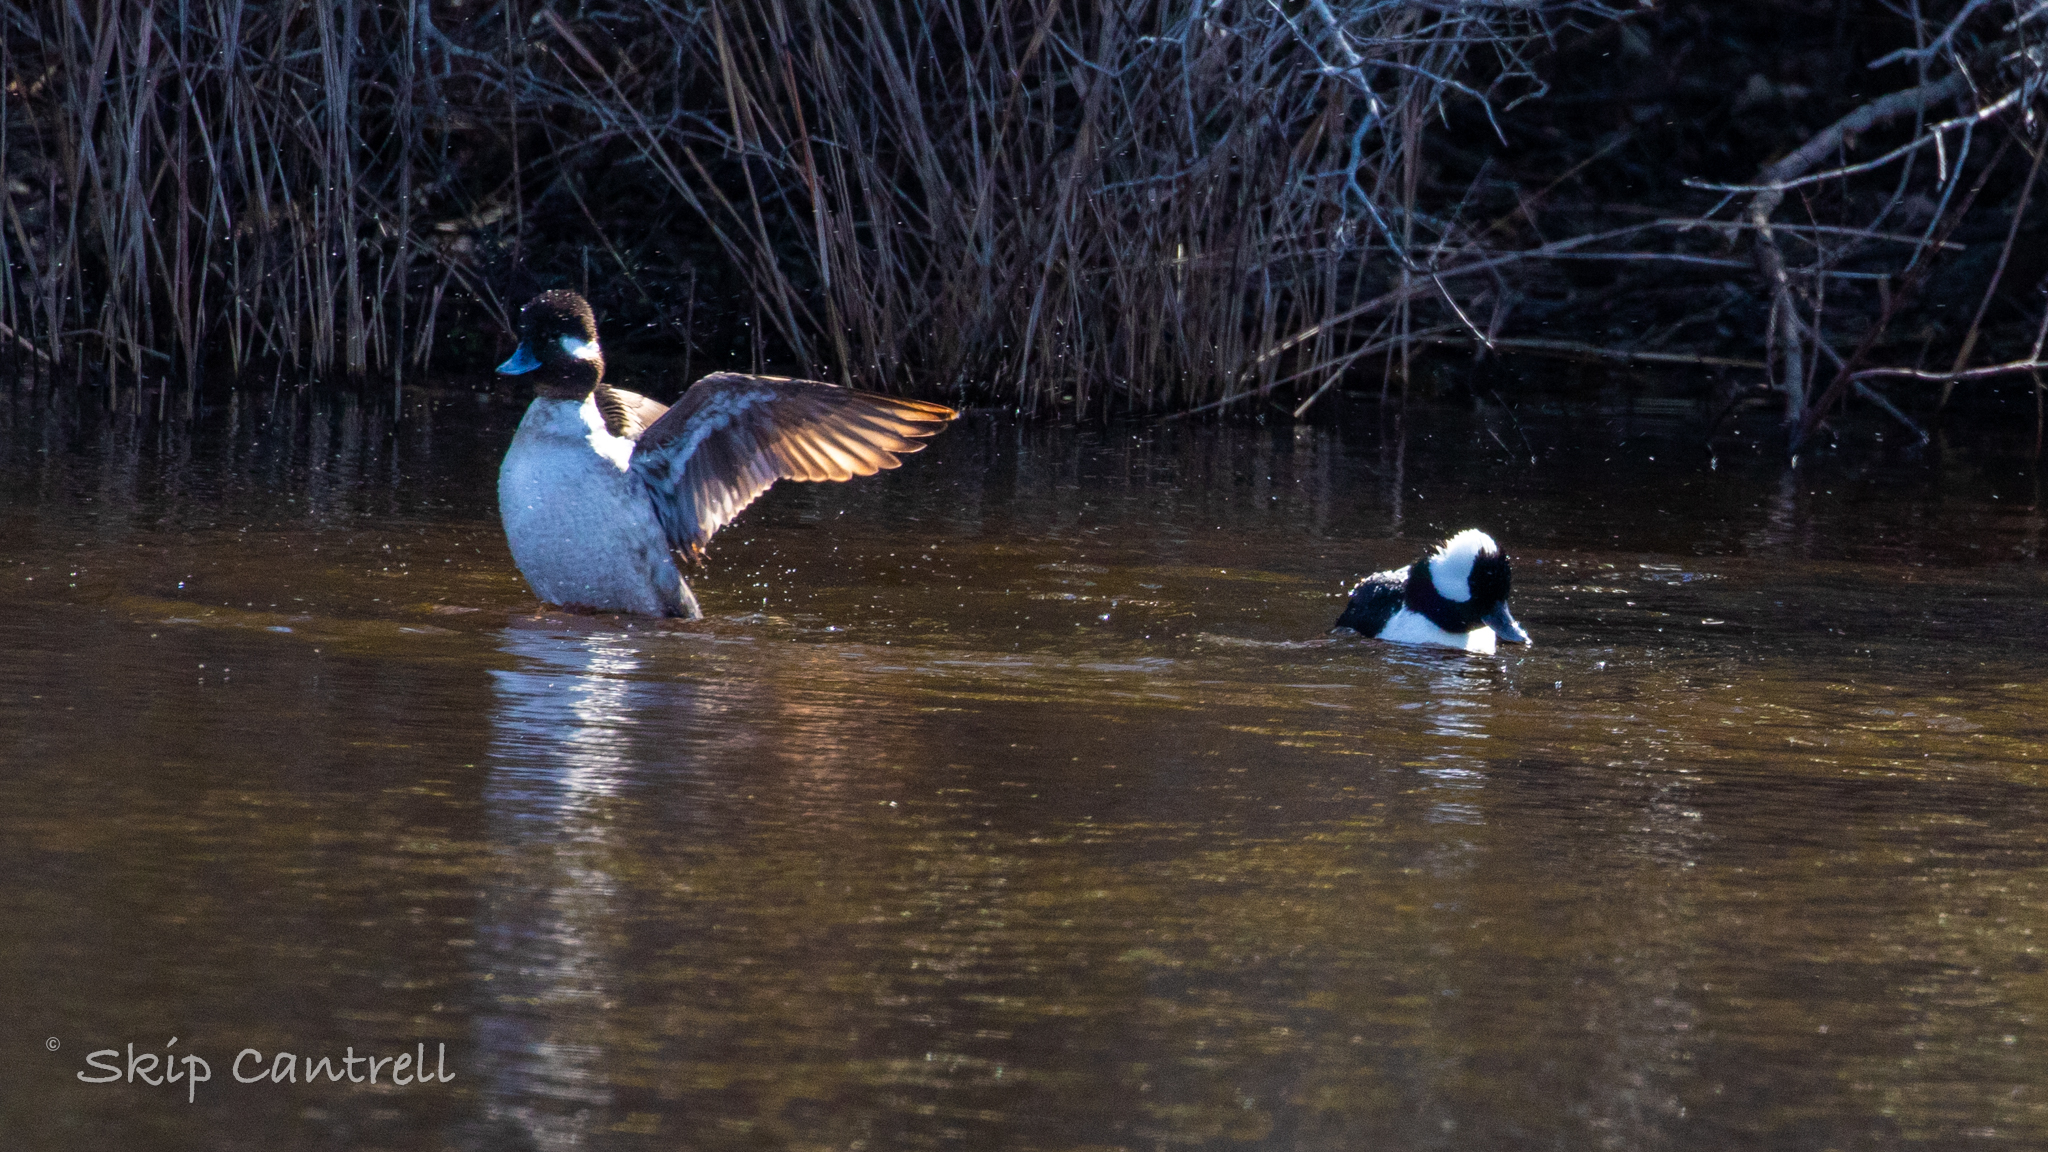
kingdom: Animalia
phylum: Chordata
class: Aves
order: Anseriformes
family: Anatidae
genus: Bucephala
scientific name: Bucephala albeola
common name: Bufflehead
